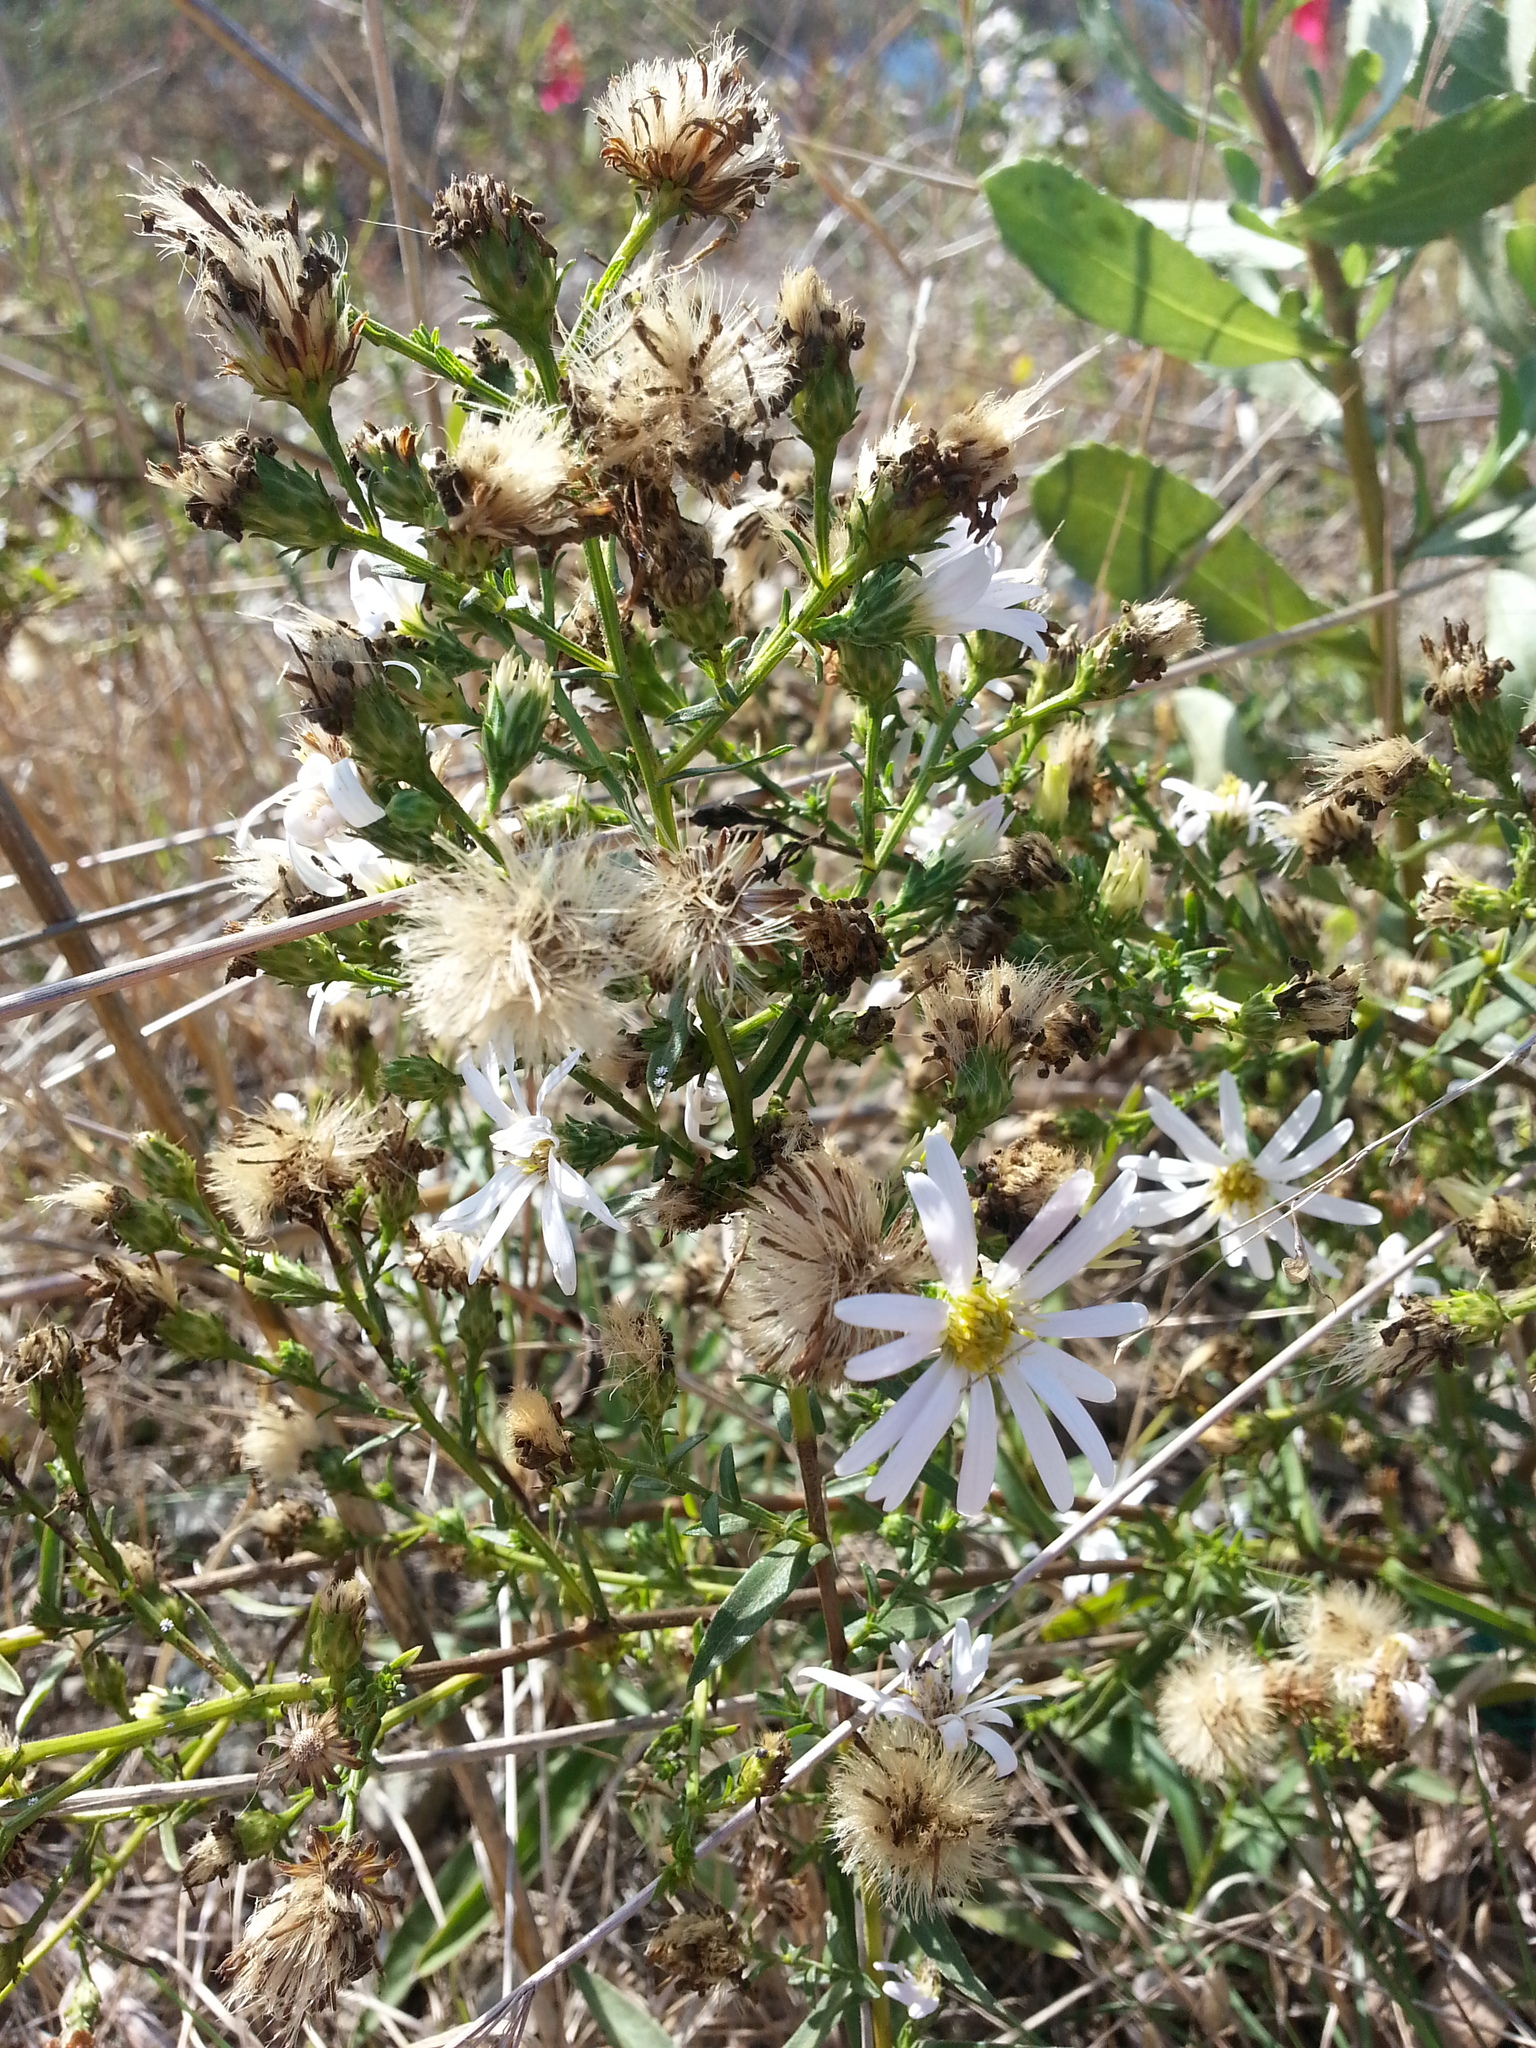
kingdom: Plantae
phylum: Tracheophyta
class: Magnoliopsida
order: Asterales
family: Asteraceae
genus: Symphyotrichum
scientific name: Symphyotrichum chilense
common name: Pacific aster
